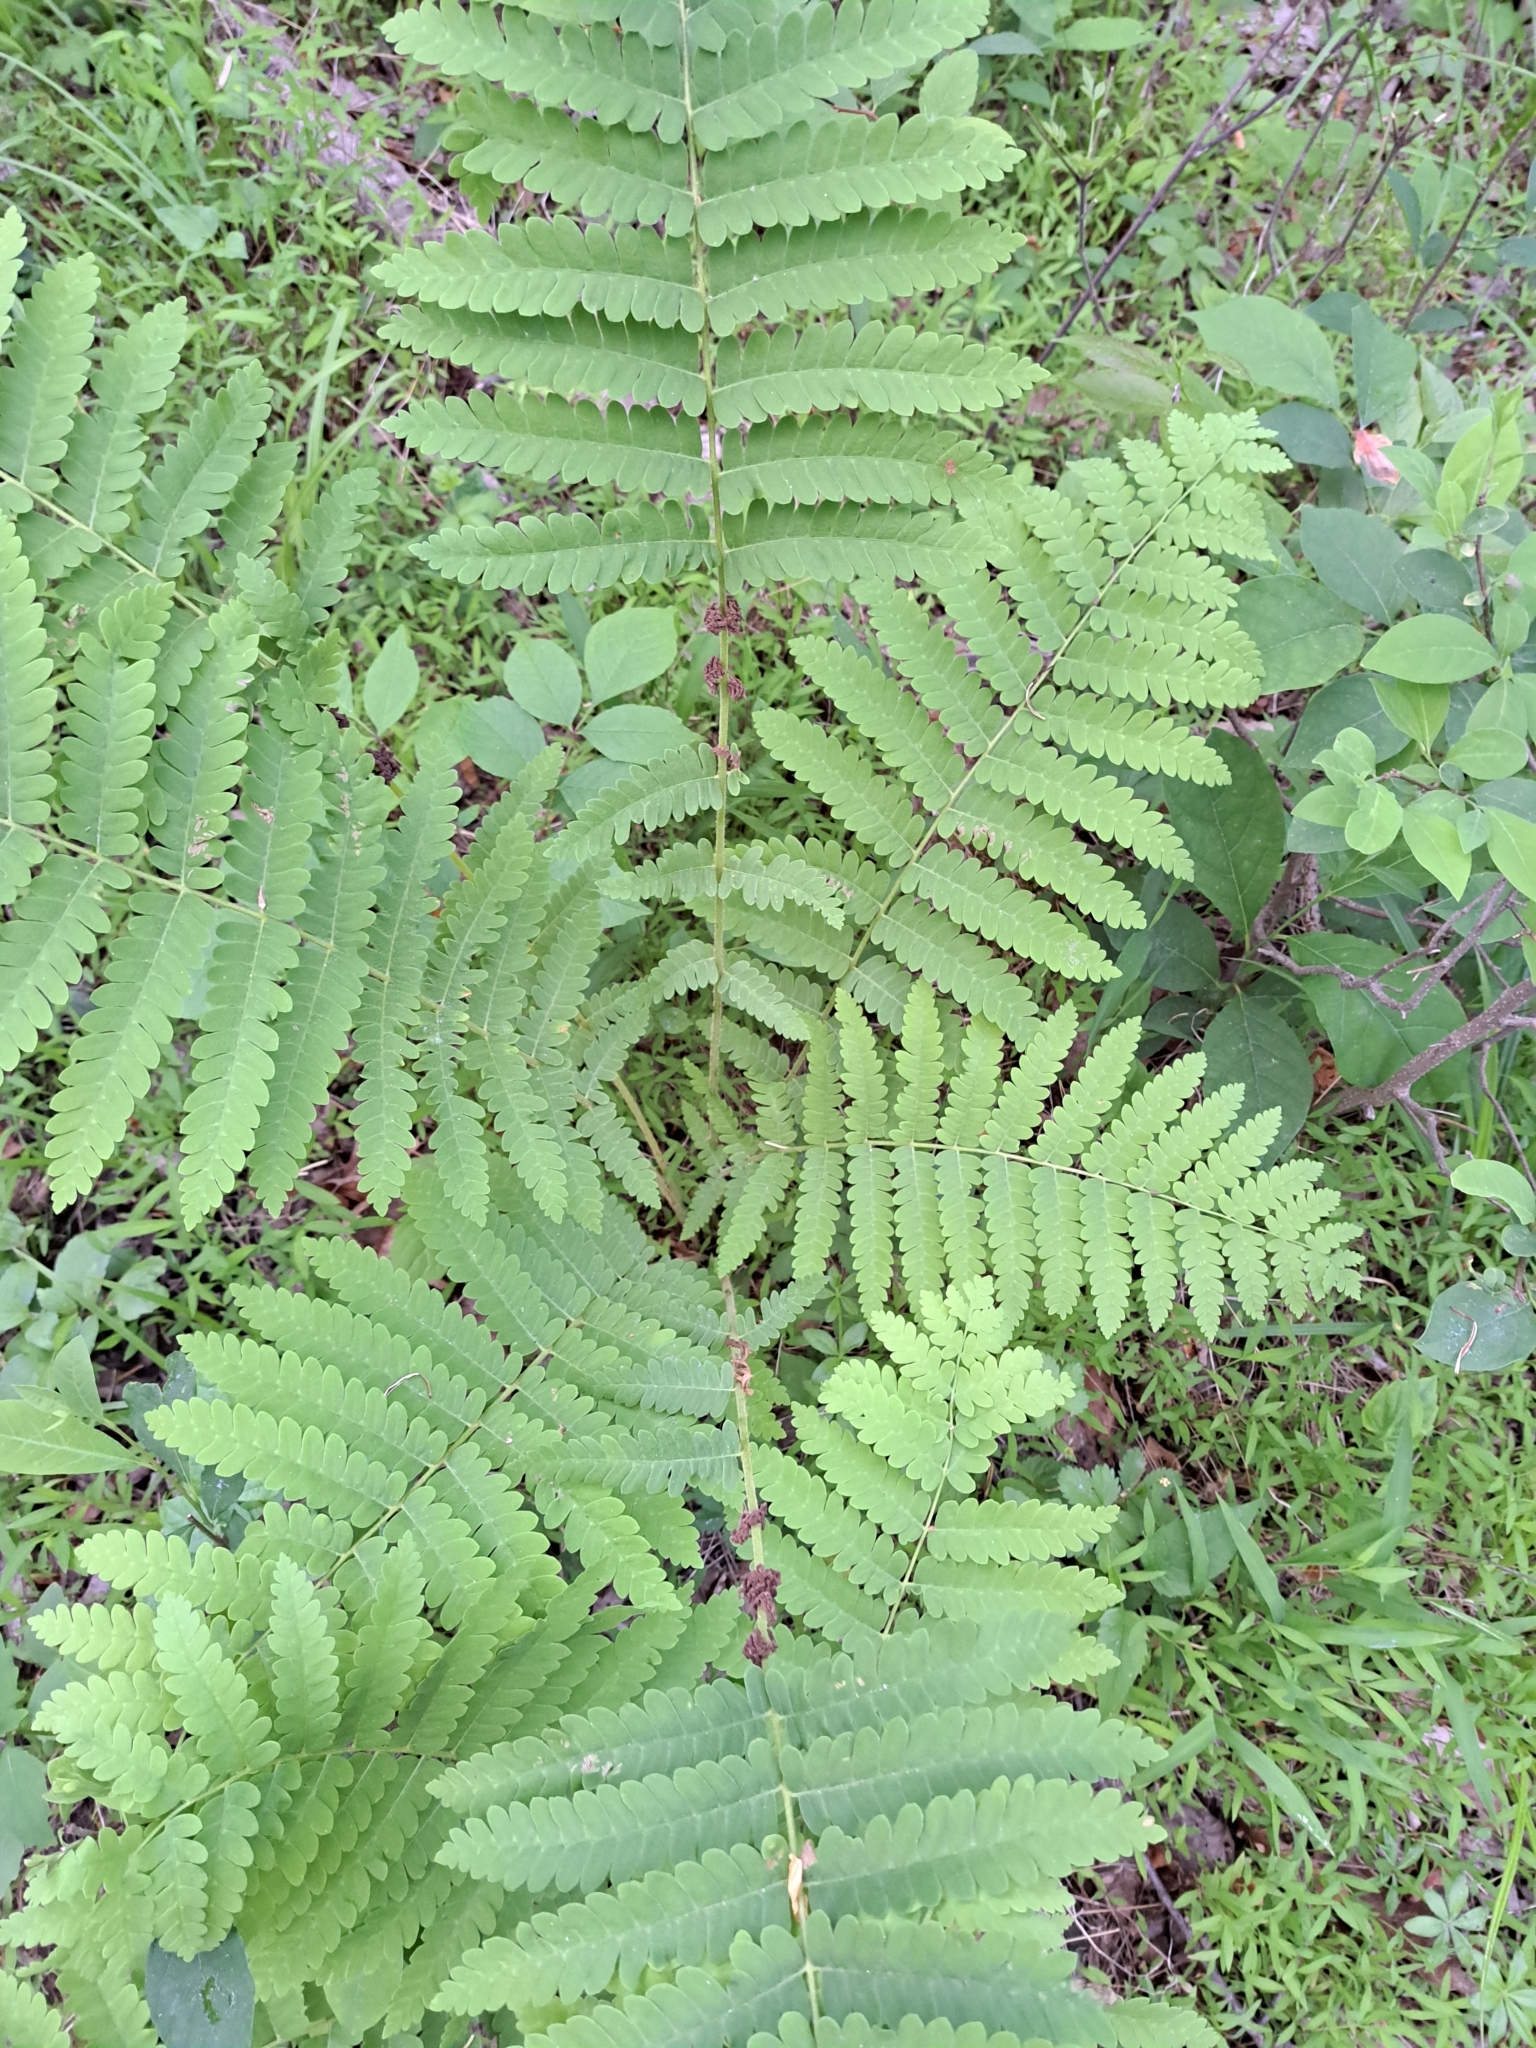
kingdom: Plantae
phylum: Tracheophyta
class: Polypodiopsida
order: Osmundales
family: Osmundaceae
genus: Claytosmunda
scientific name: Claytosmunda claytoniana
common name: Clayton's fern
